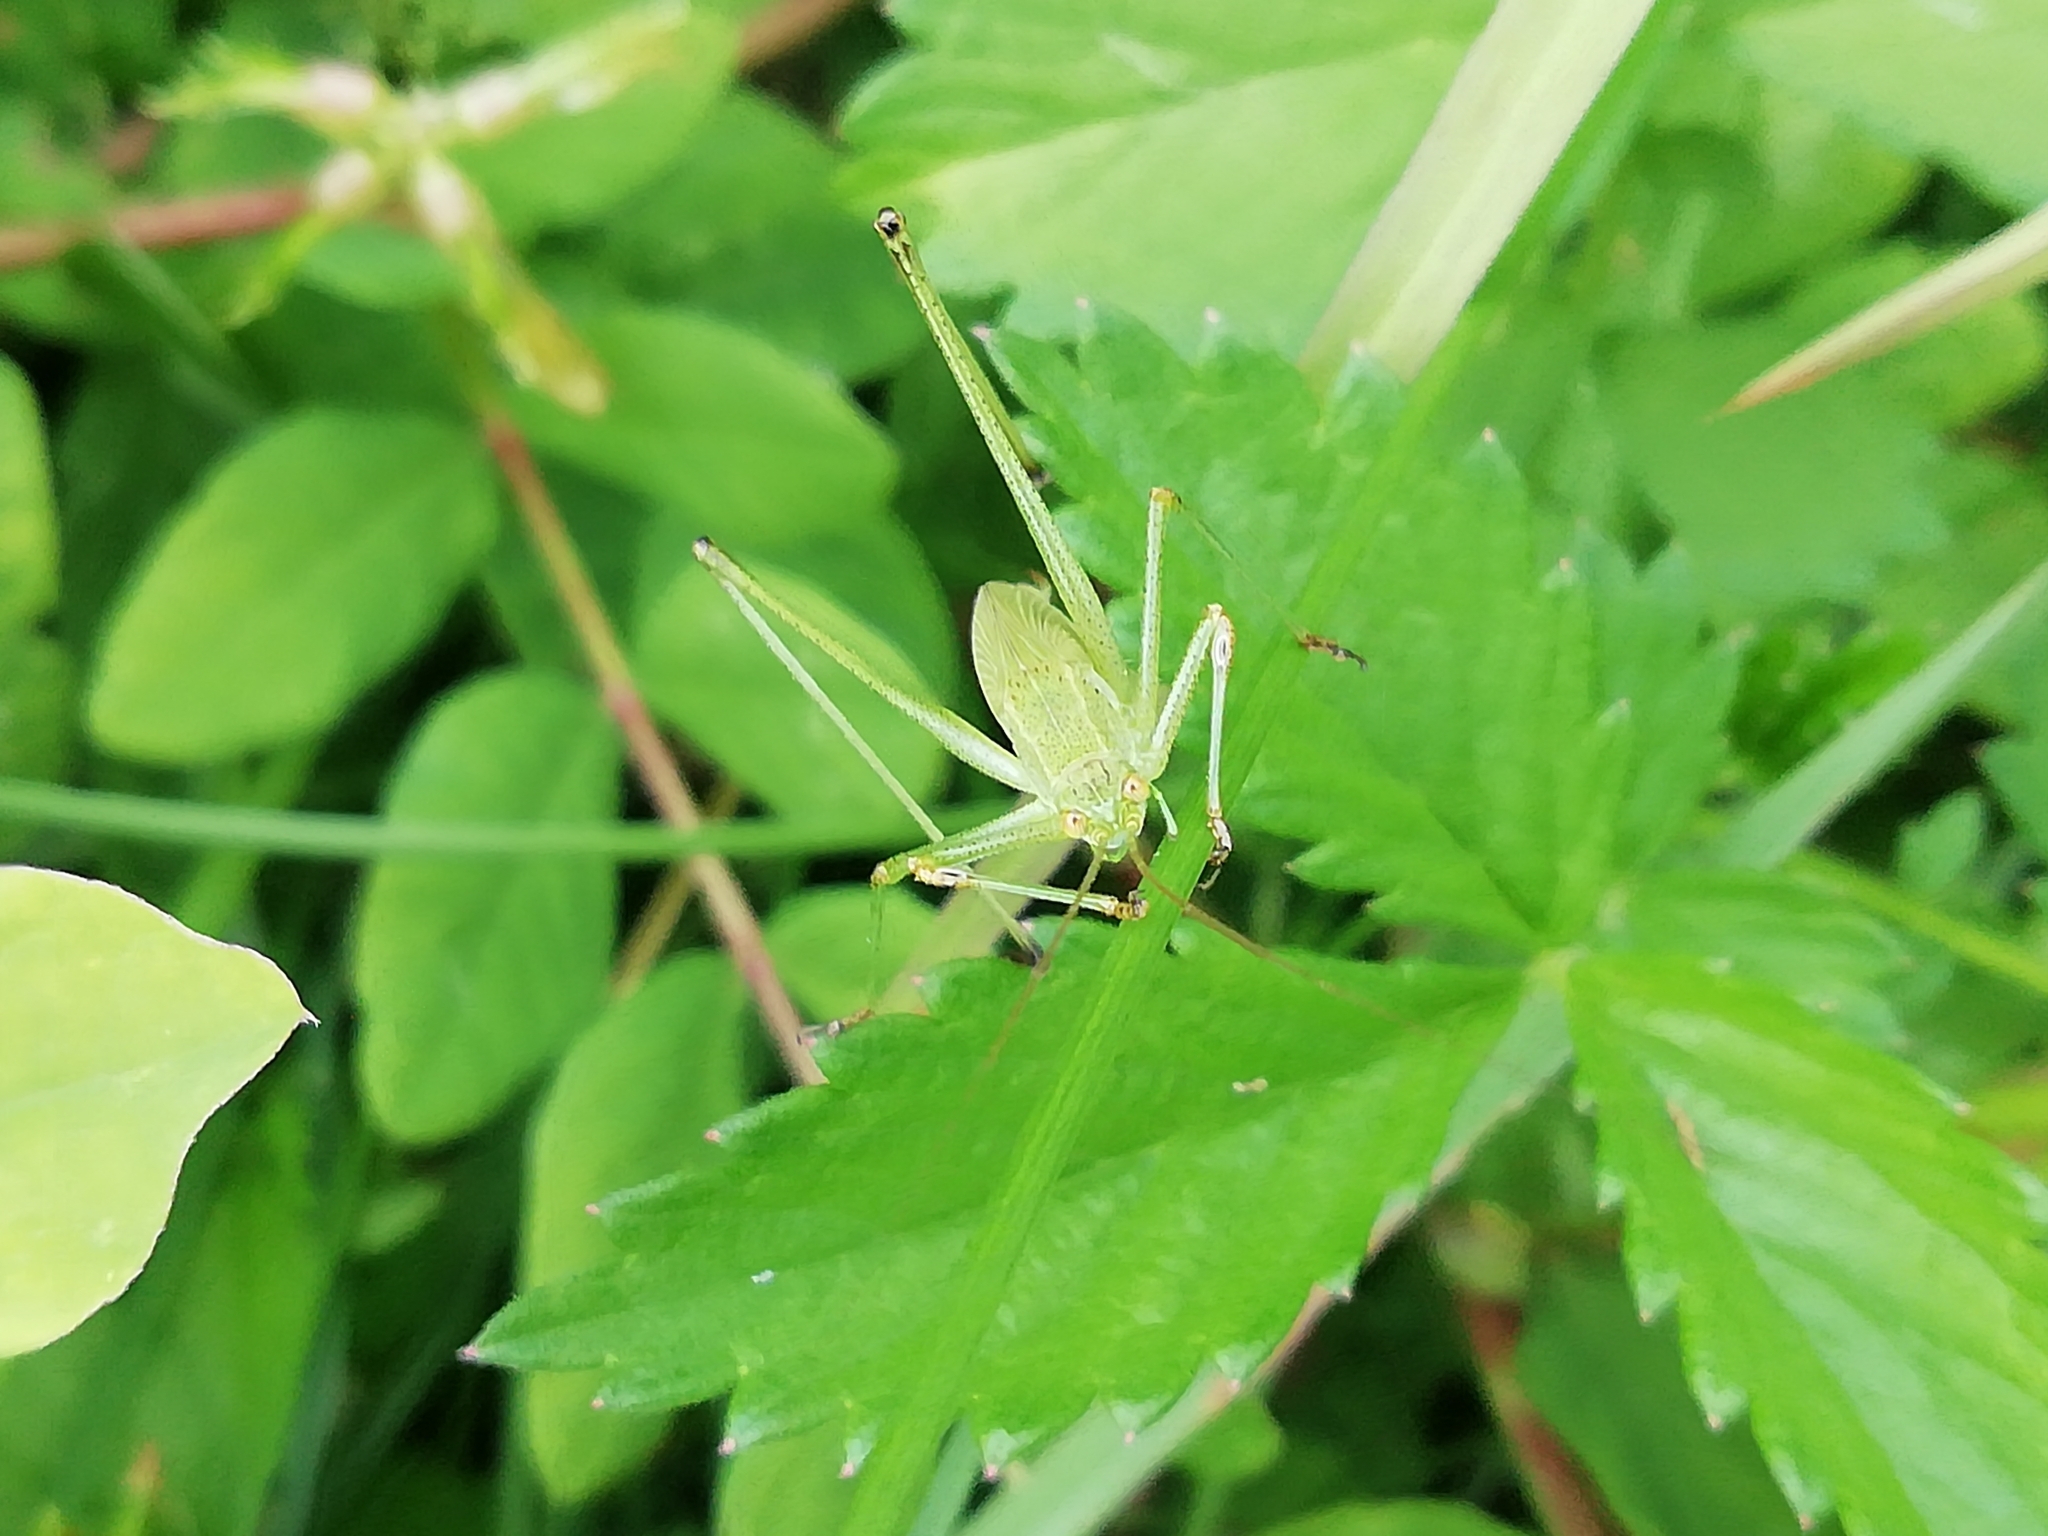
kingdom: Animalia
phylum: Arthropoda
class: Insecta
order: Orthoptera
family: Tettigoniidae
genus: Phaneroptera
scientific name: Phaneroptera falcata
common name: Sickle-bearing bush-cricket
